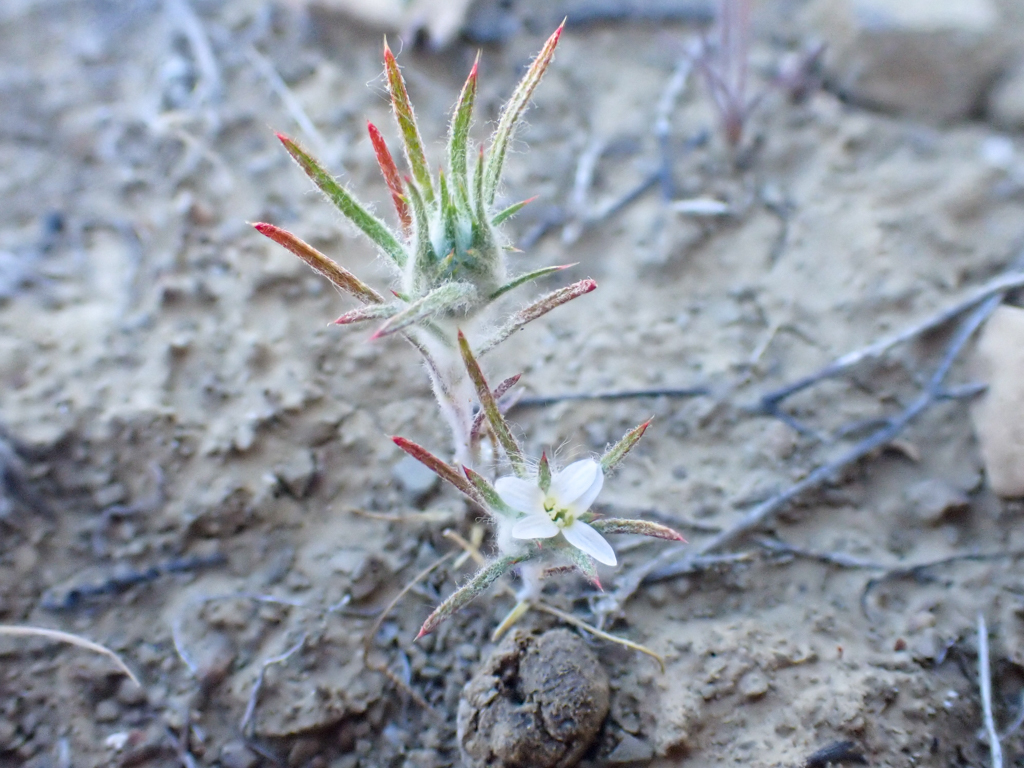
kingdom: Plantae
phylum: Tracheophyta
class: Magnoliopsida
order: Ericales
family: Polemoniaceae
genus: Eriastrum
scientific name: Eriastrum tracyi
